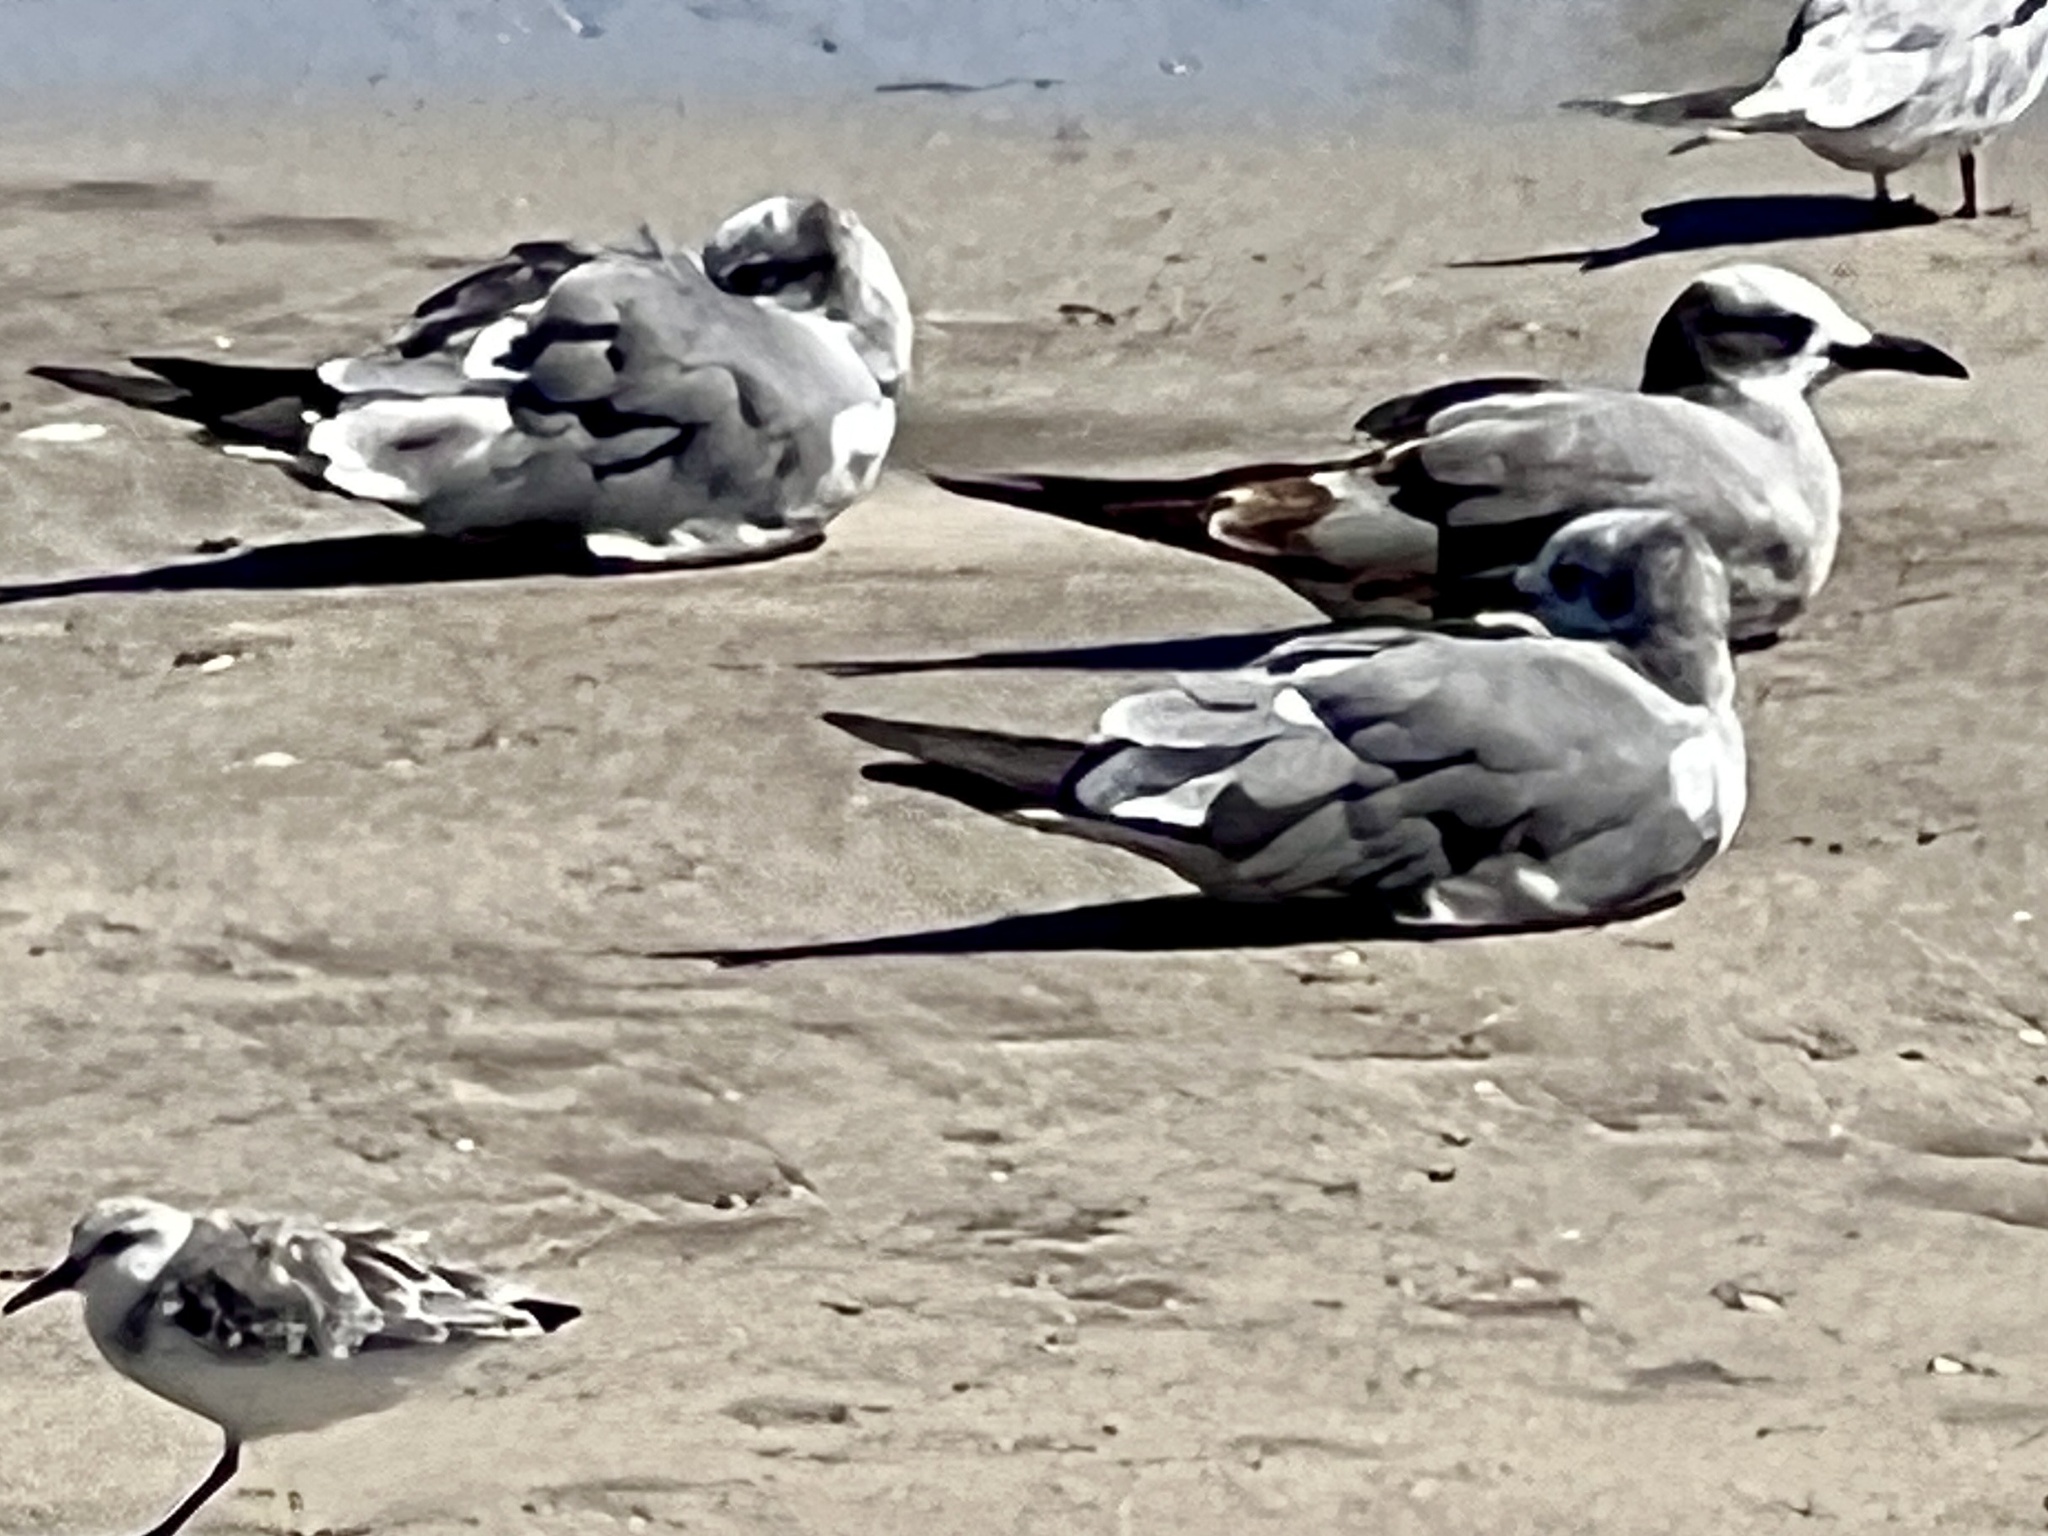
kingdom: Animalia
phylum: Chordata
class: Aves
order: Charadriiformes
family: Laridae
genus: Leucophaeus
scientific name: Leucophaeus atricilla
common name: Laughing gull
